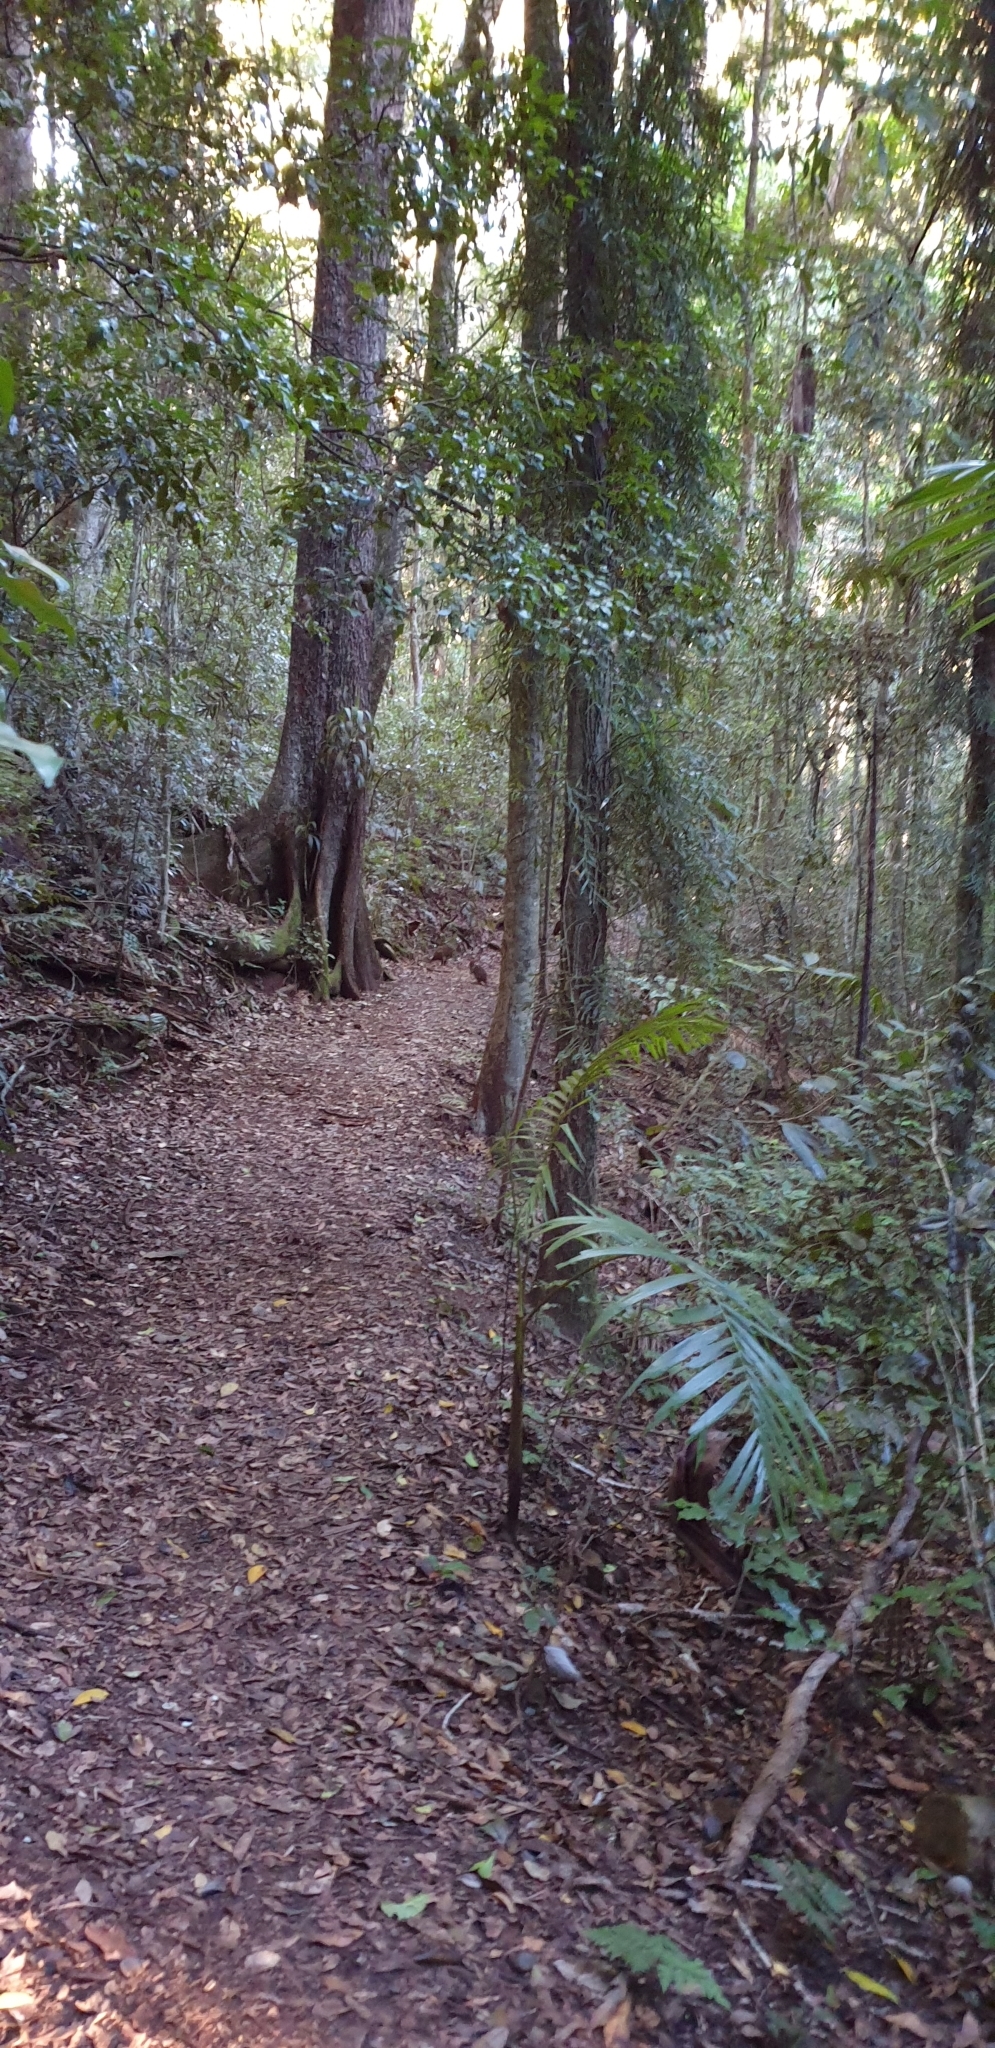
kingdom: Animalia
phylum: Chordata
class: Mammalia
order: Diprotodontia
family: Macropodidae
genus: Thylogale
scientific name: Thylogale stigmatica
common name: Red-legged pademelon
